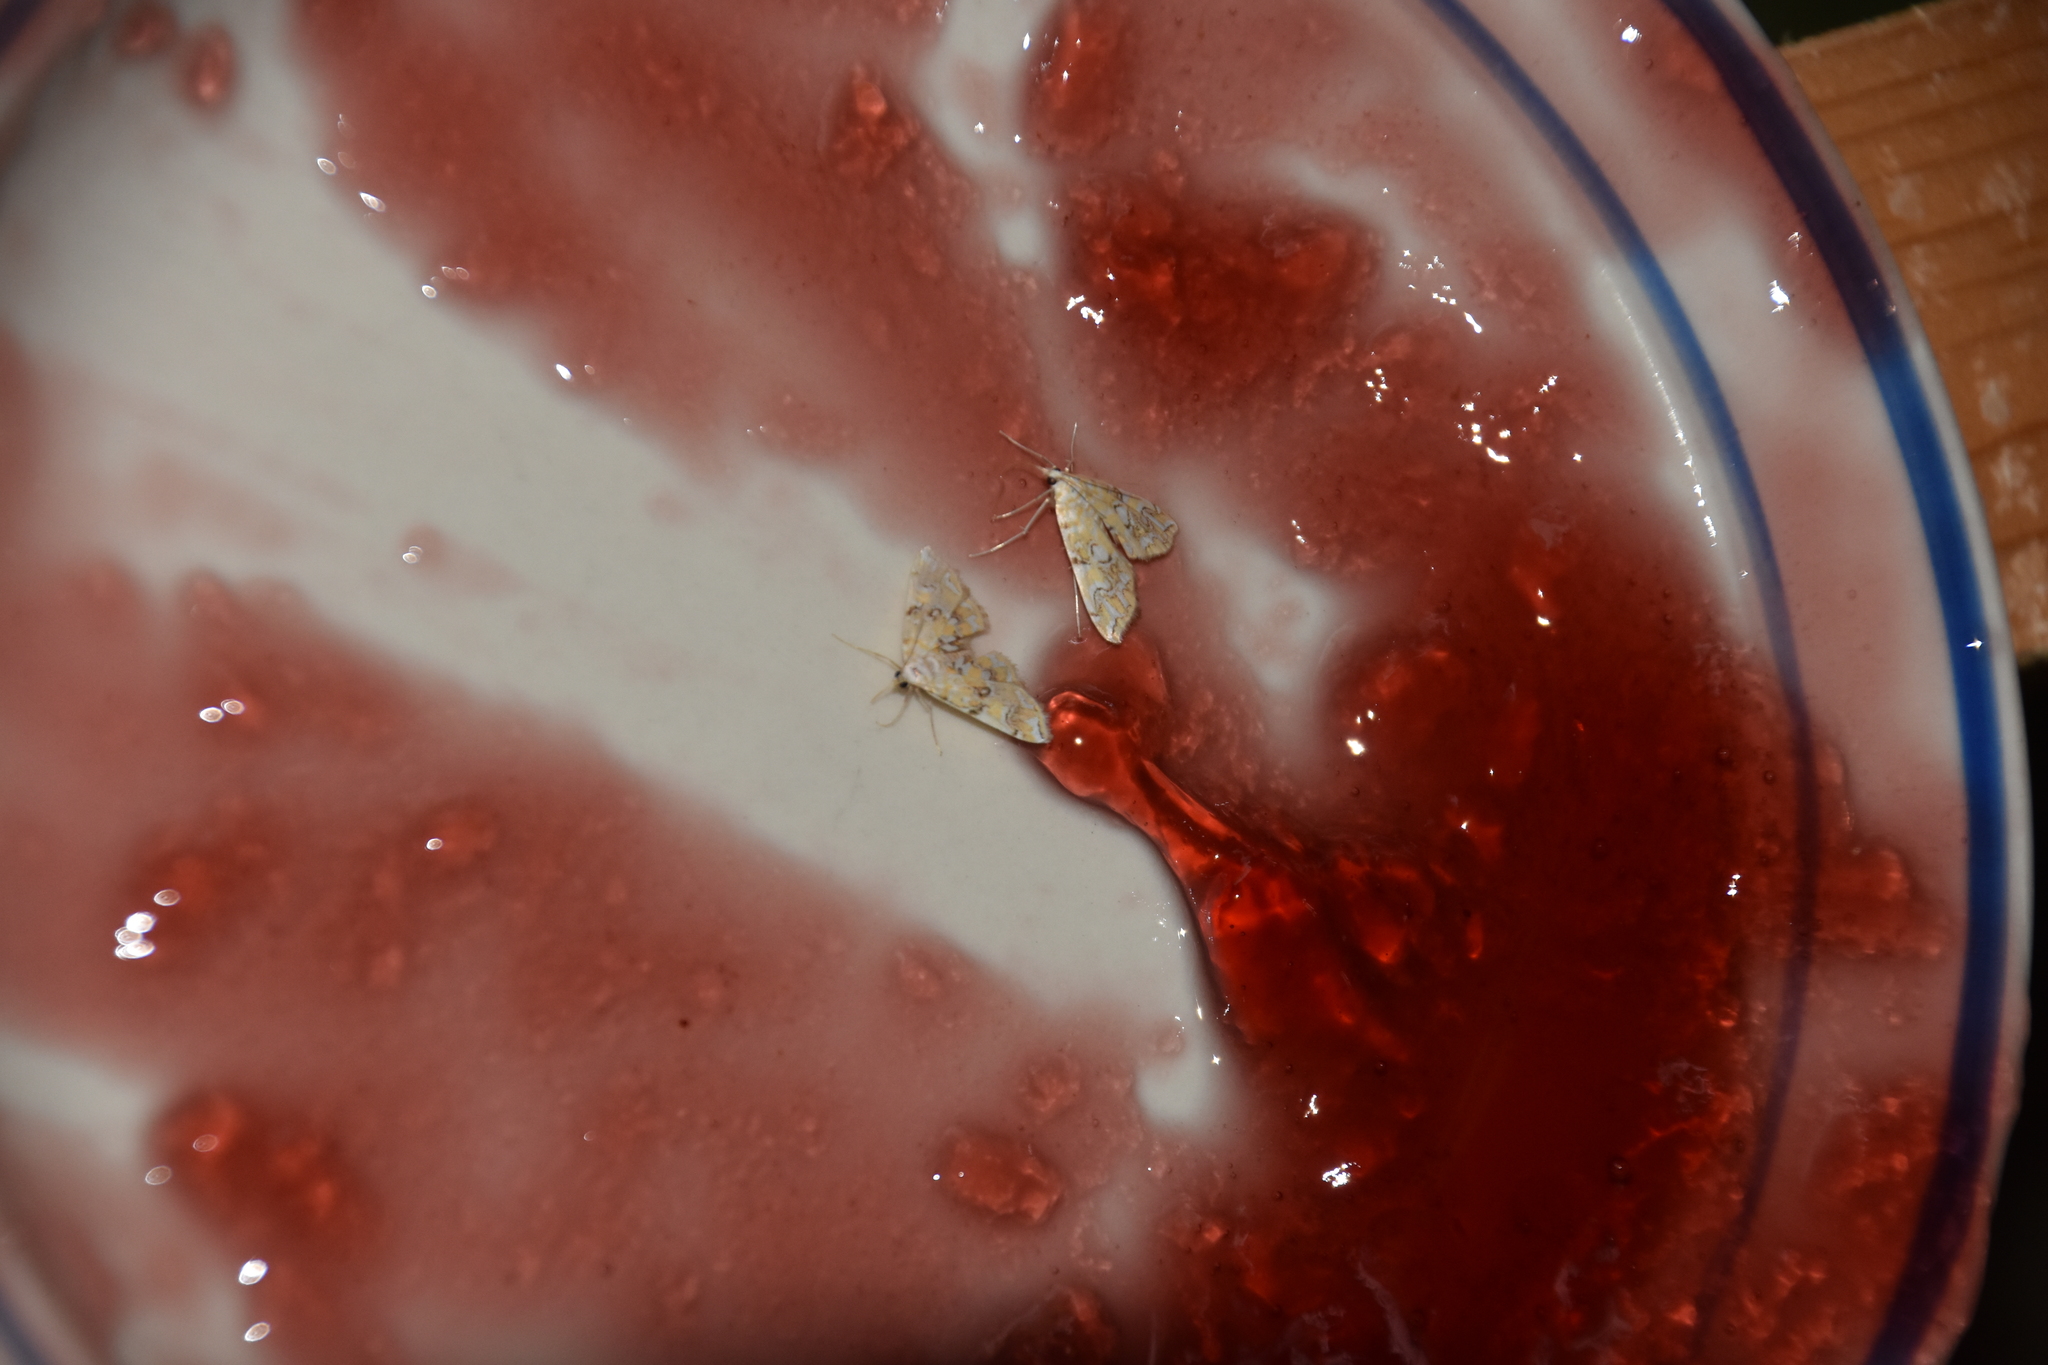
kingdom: Animalia
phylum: Arthropoda
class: Insecta
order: Lepidoptera
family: Crambidae
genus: Elophila
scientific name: Elophila icciusalis
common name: Pondside pyralid moth
